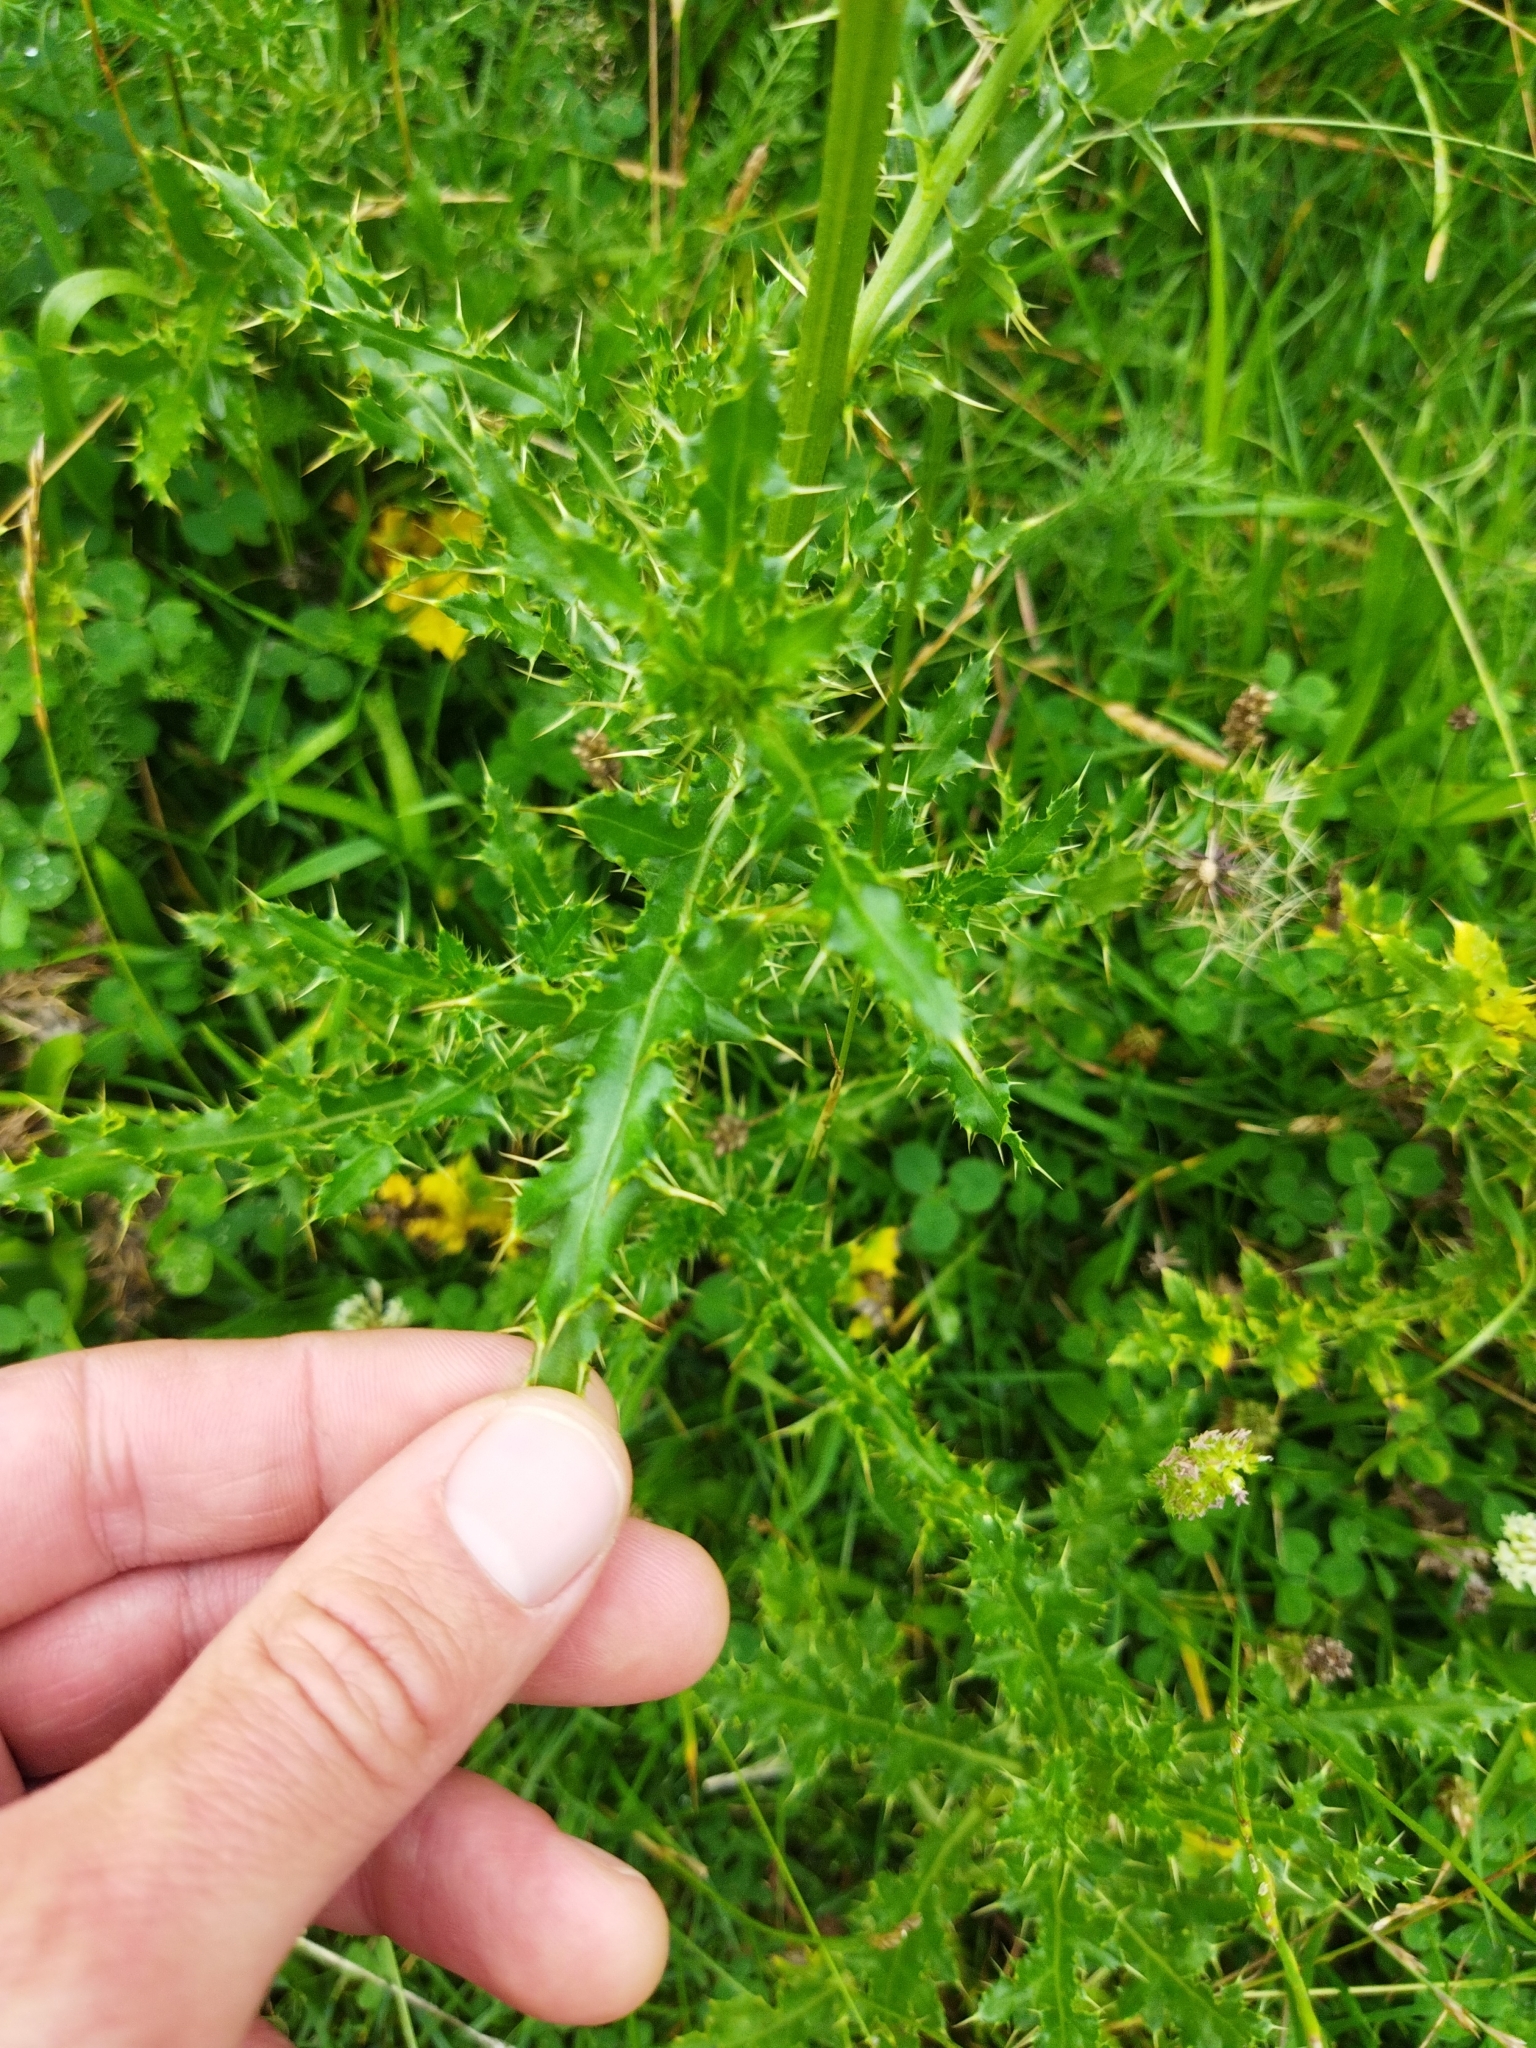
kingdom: Plantae
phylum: Tracheophyta
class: Magnoliopsida
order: Asterales
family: Asteraceae
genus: Cirsium
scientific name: Cirsium arvense
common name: Creeping thistle
